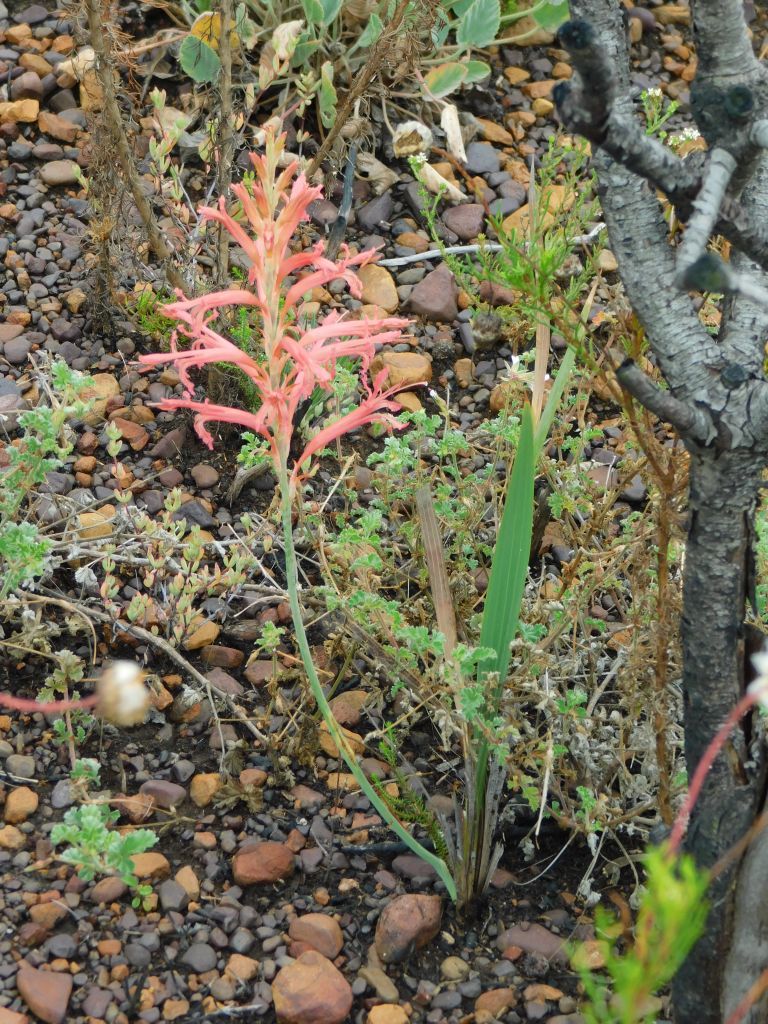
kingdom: Plantae
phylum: Tracheophyta
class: Liliopsida
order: Asparagales
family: Iridaceae
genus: Tritoniopsis
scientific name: Tritoniopsis antholyza
